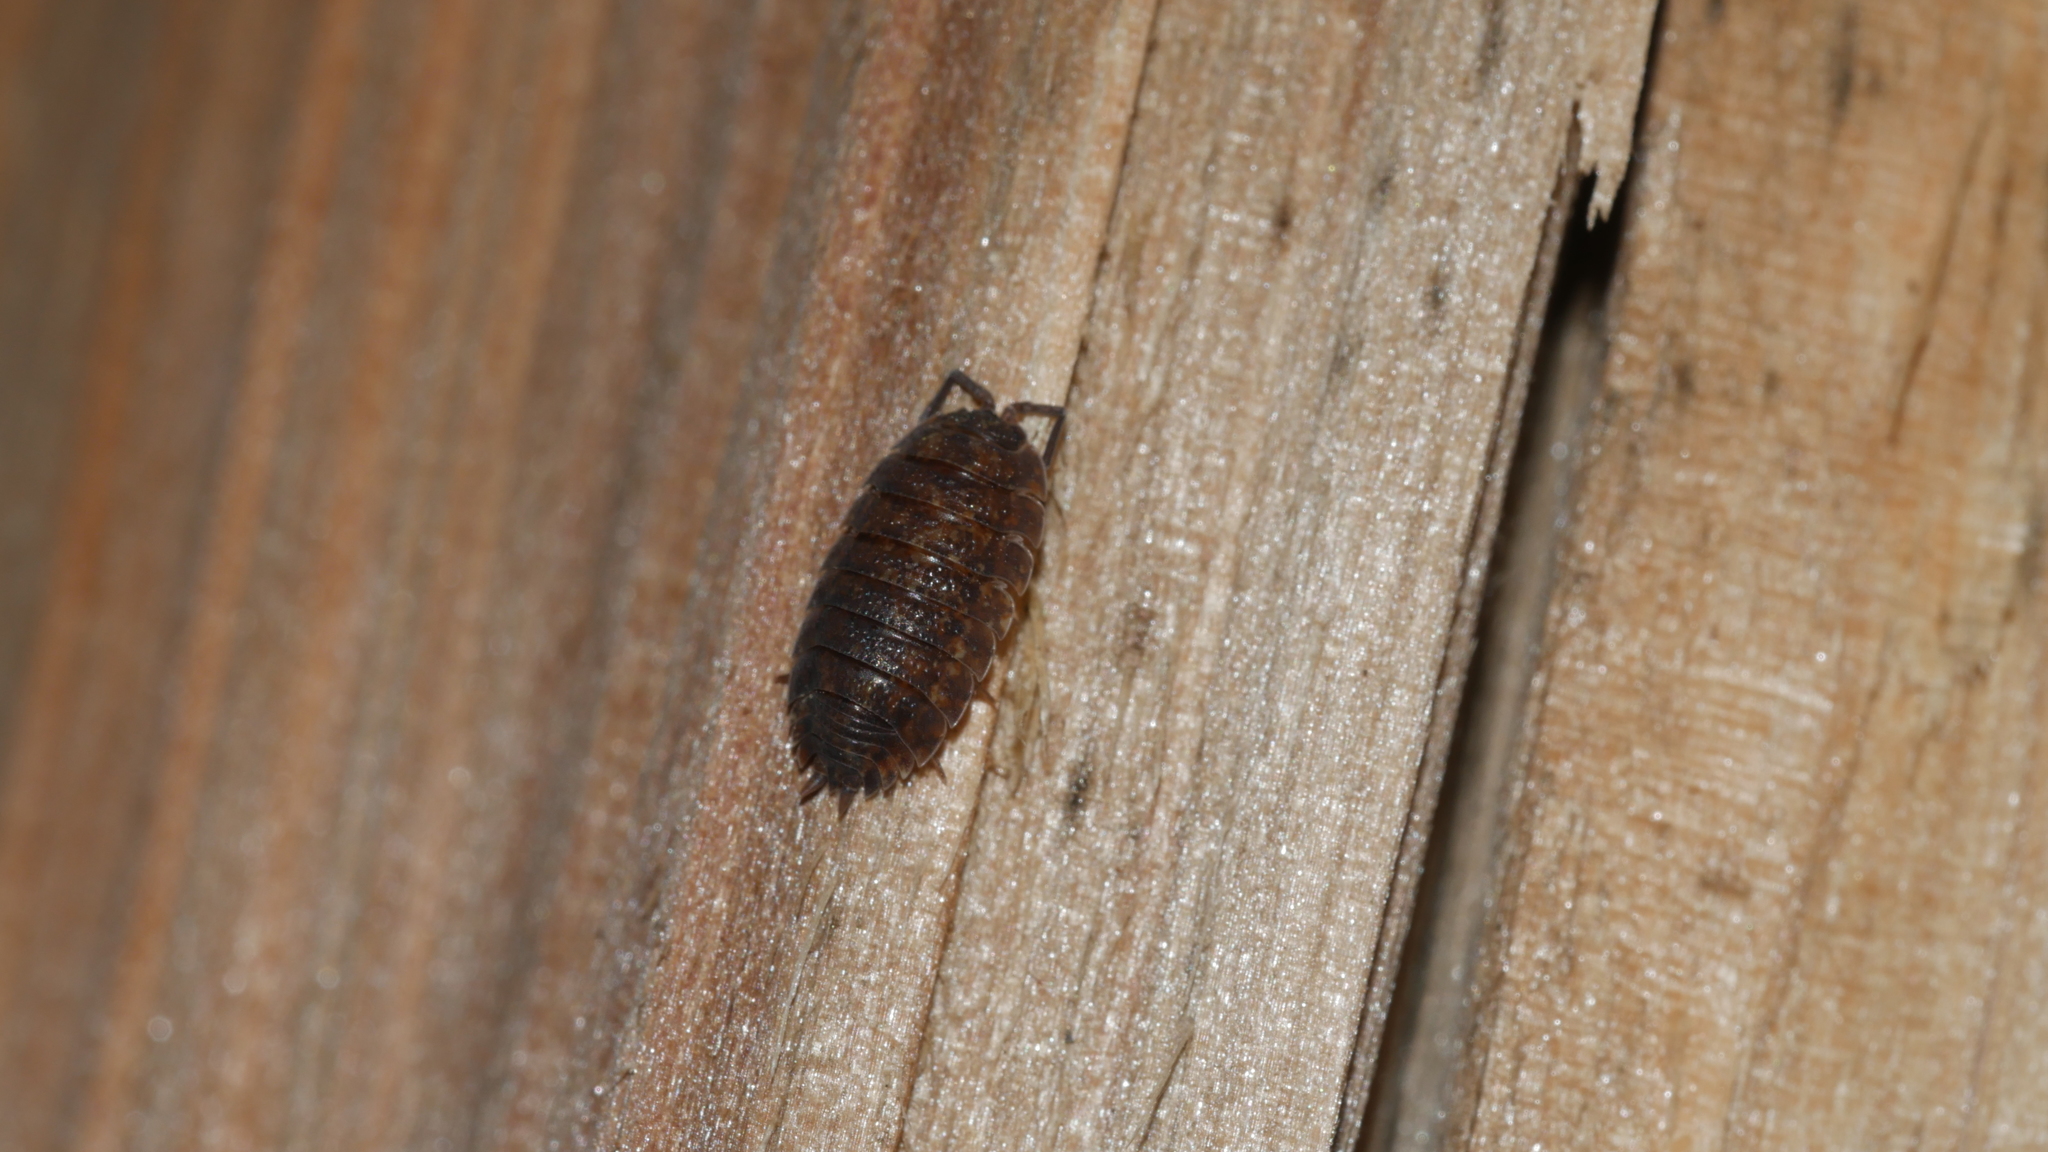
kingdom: Animalia
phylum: Arthropoda
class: Malacostraca
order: Isopoda
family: Porcellionidae
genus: Porcellio
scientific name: Porcellio scaber
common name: Common rough woodlouse
